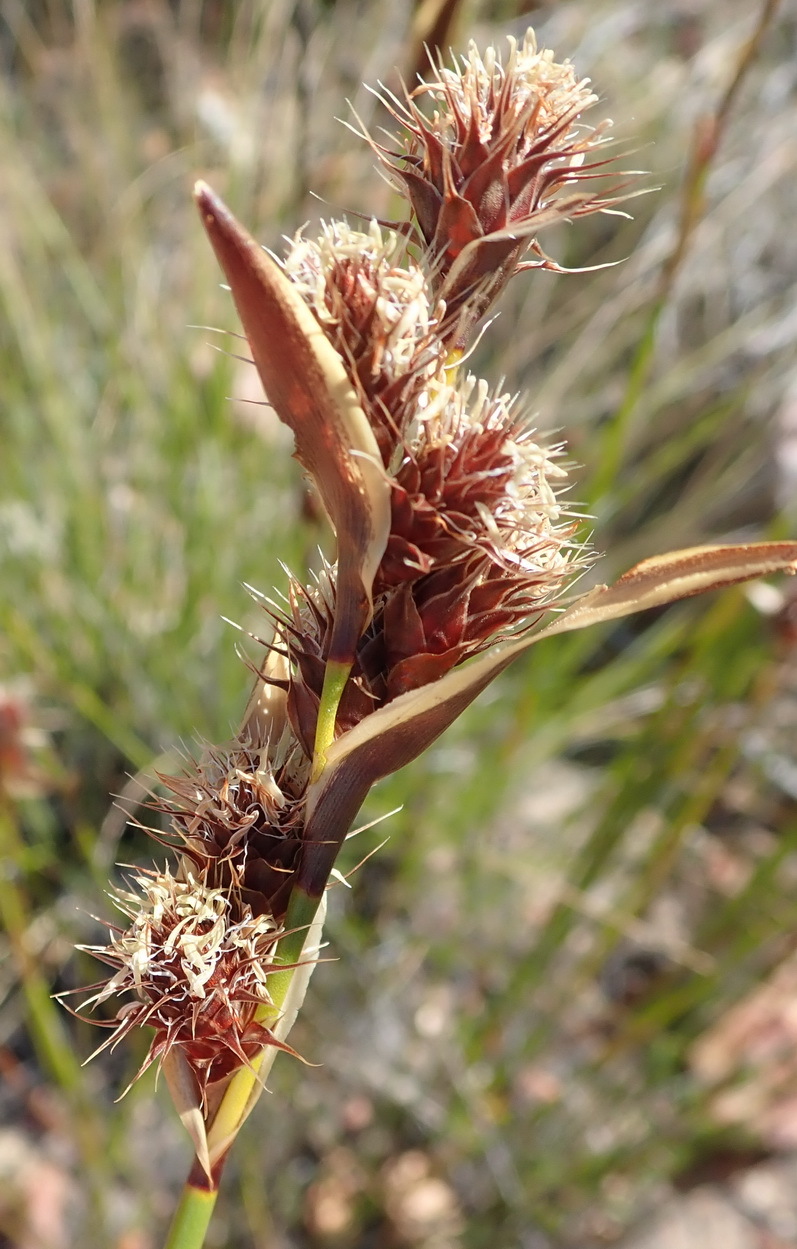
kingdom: Plantae
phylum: Tracheophyta
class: Liliopsida
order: Poales
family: Restionaceae
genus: Hypodiscus
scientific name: Hypodiscus aristatus
